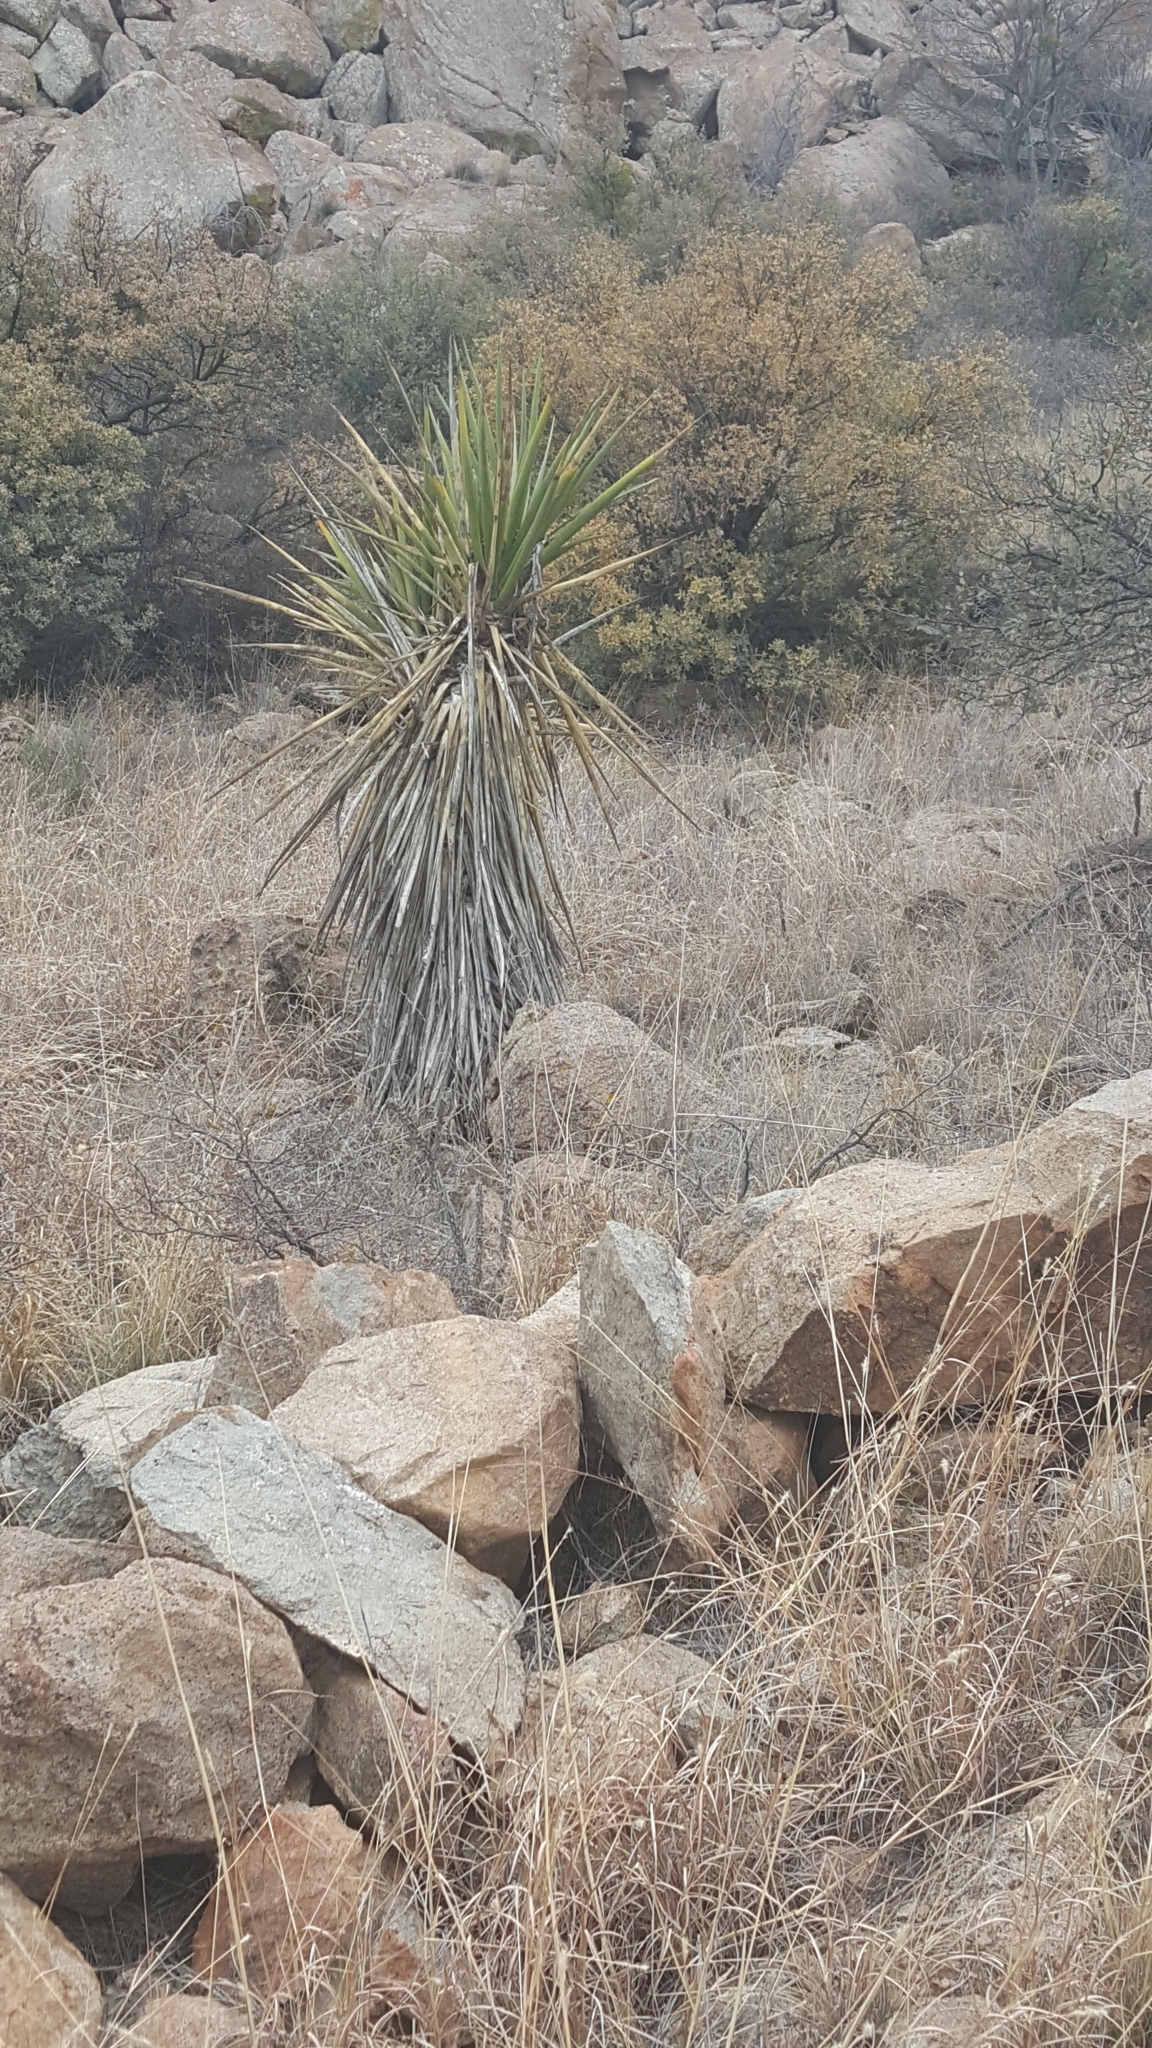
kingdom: Plantae
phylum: Tracheophyta
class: Liliopsida
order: Asparagales
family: Asparagaceae
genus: Yucca
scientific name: Yucca treculiana
